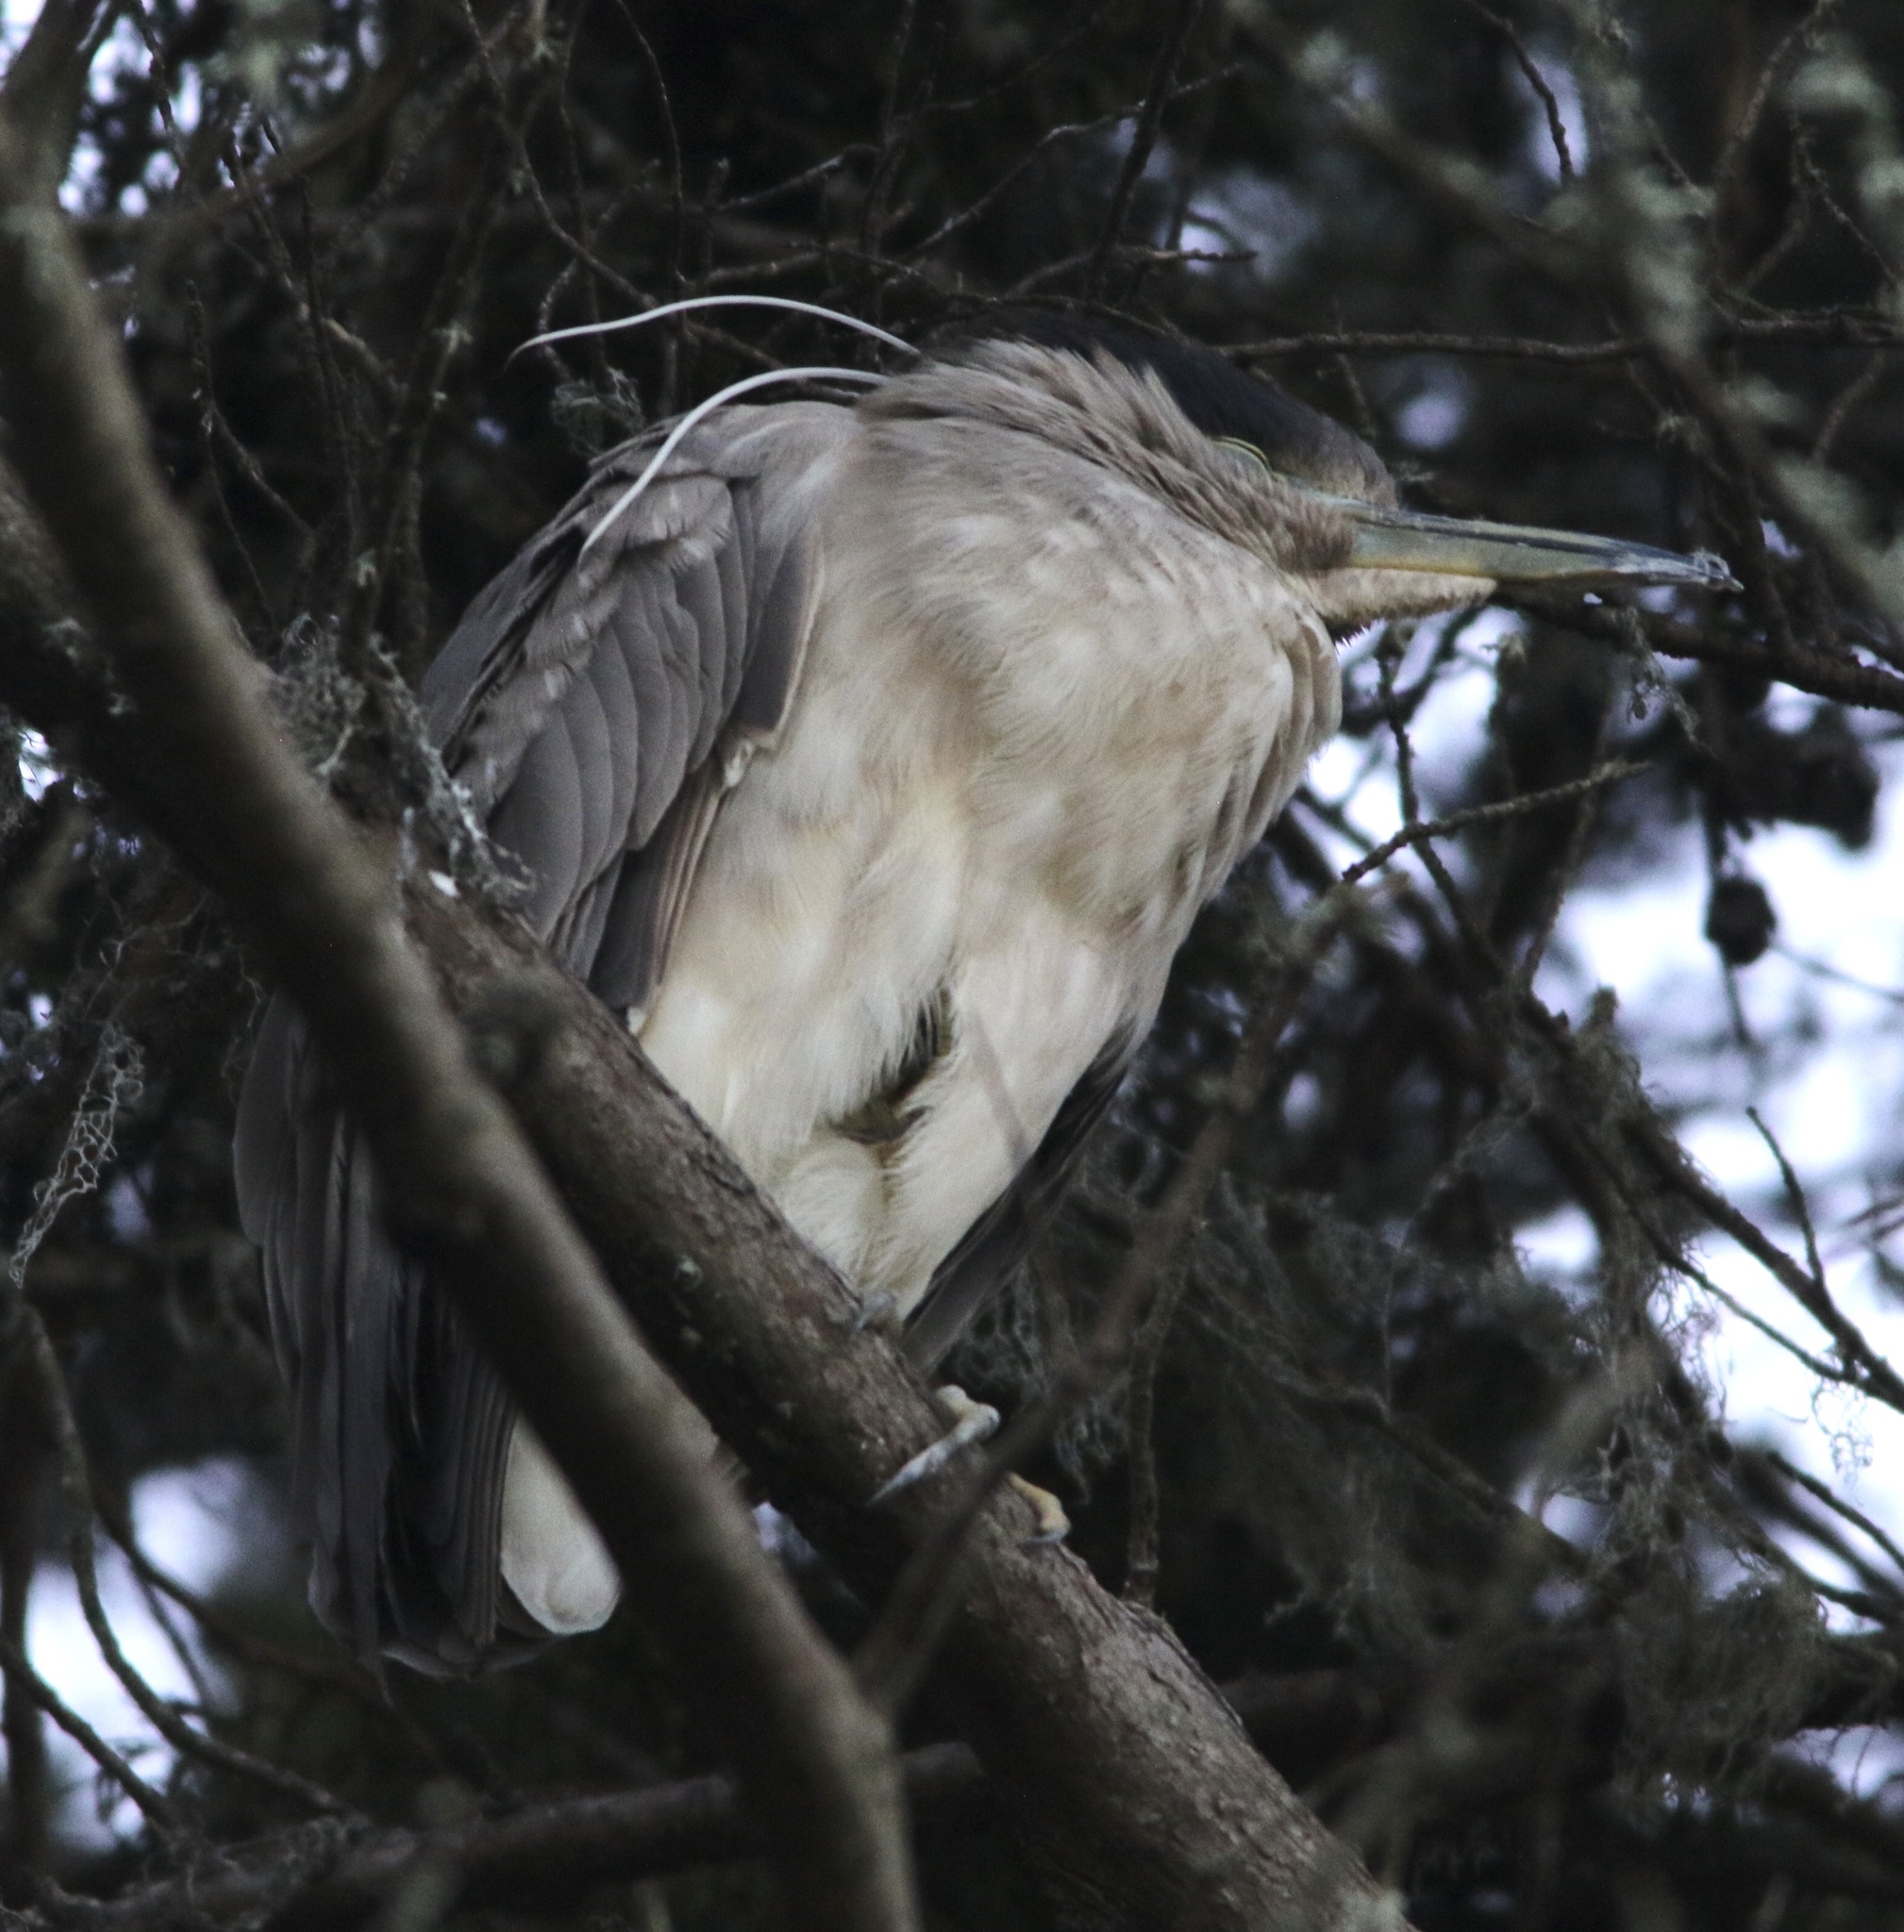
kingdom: Animalia
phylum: Chordata
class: Aves
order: Pelecaniformes
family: Ardeidae
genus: Nycticorax
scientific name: Nycticorax nycticorax
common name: Black-crowned night heron
